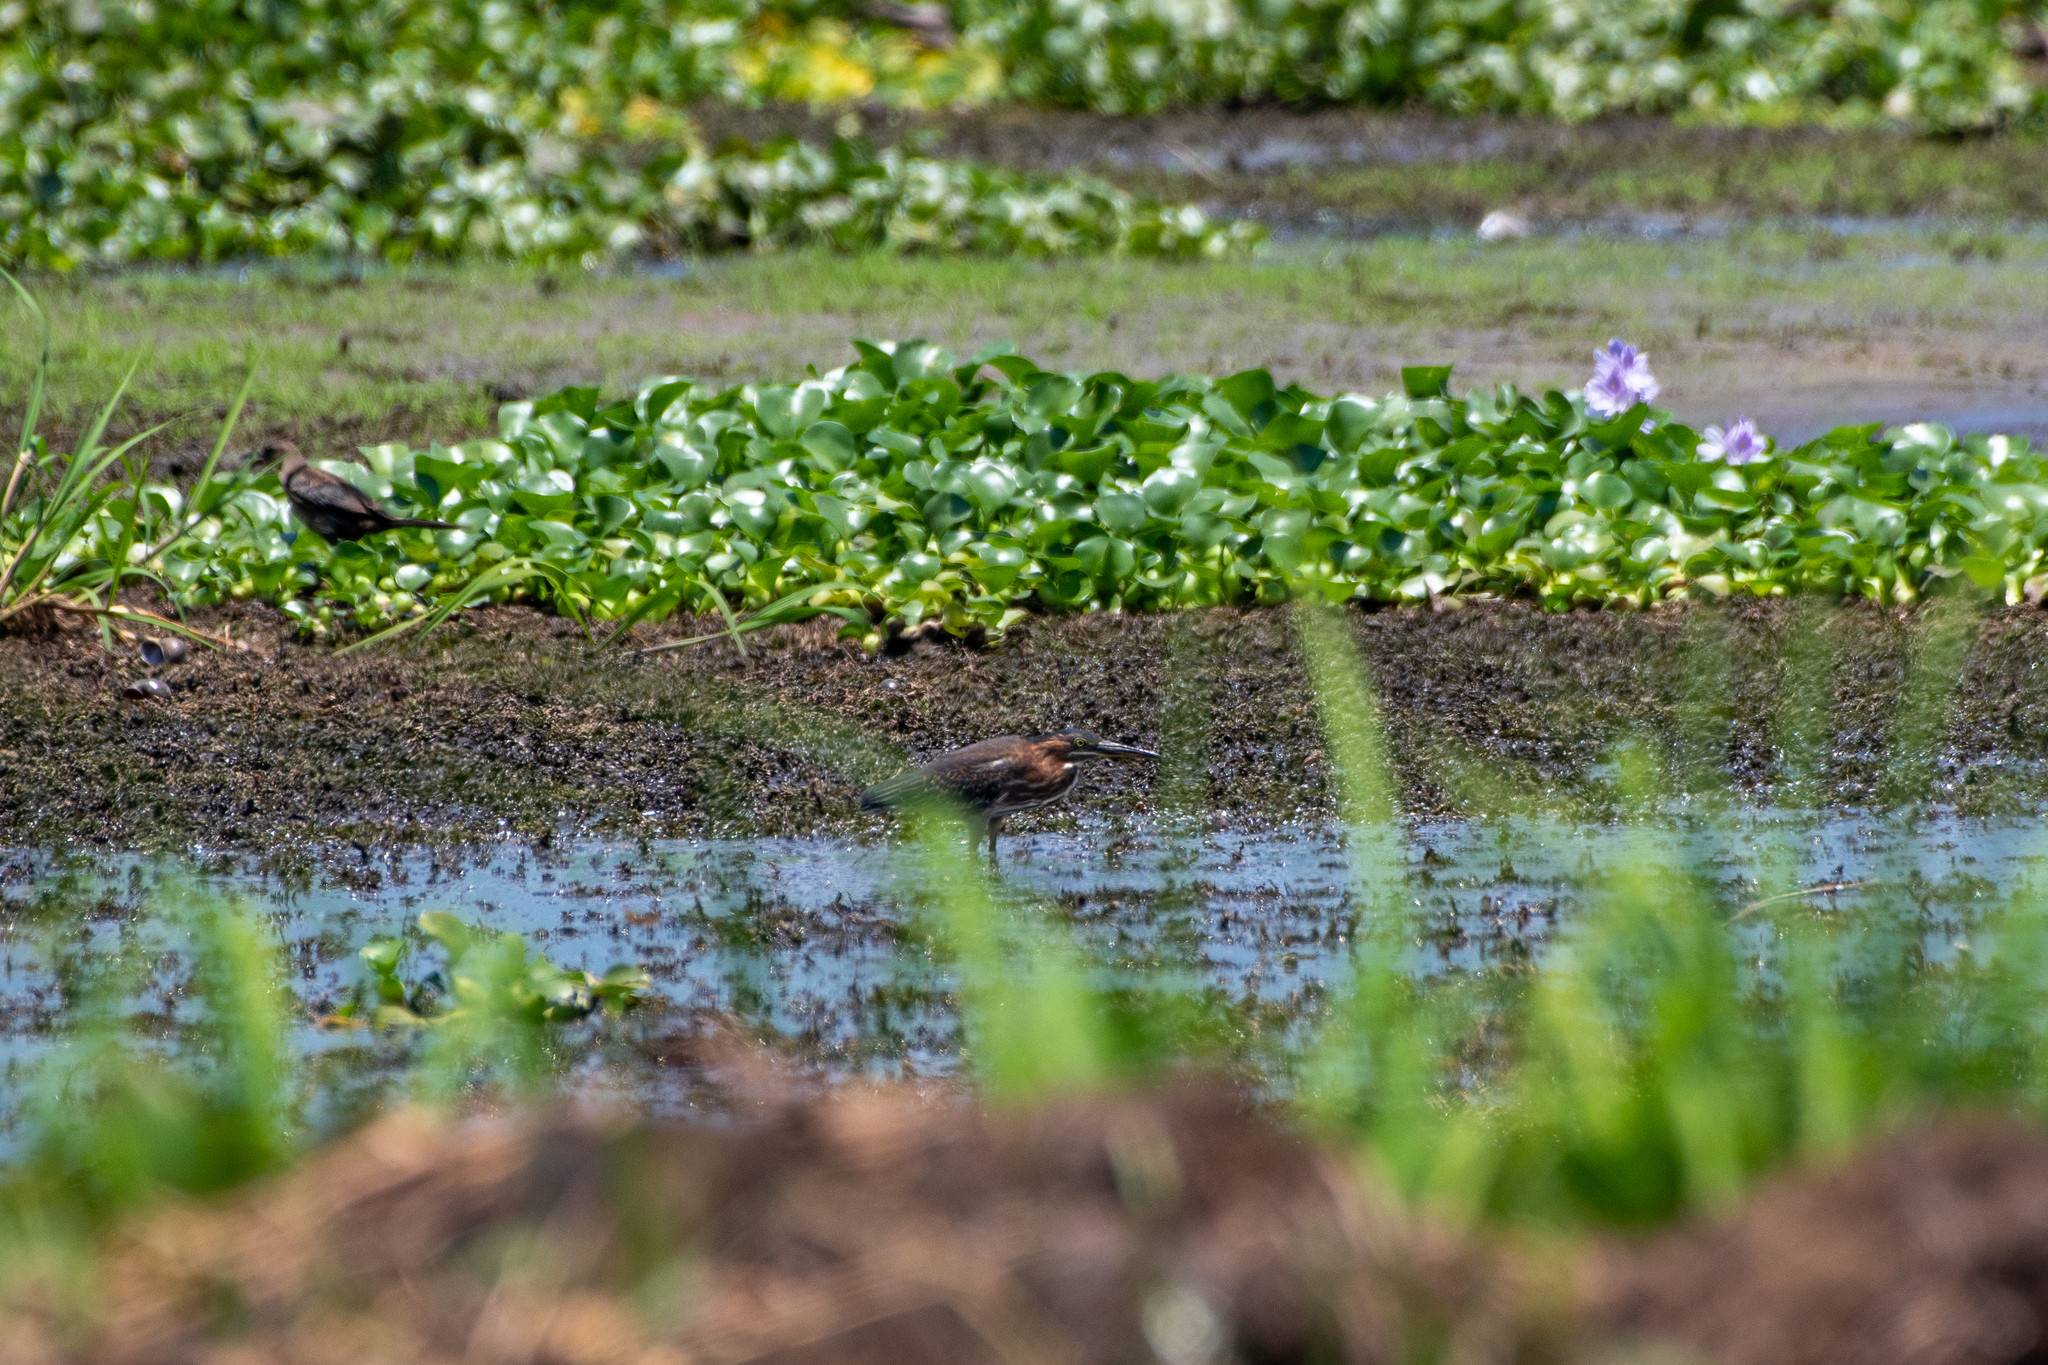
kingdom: Animalia
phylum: Chordata
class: Aves
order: Pelecaniformes
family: Ardeidae
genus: Butorides
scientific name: Butorides virescens
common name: Green heron
